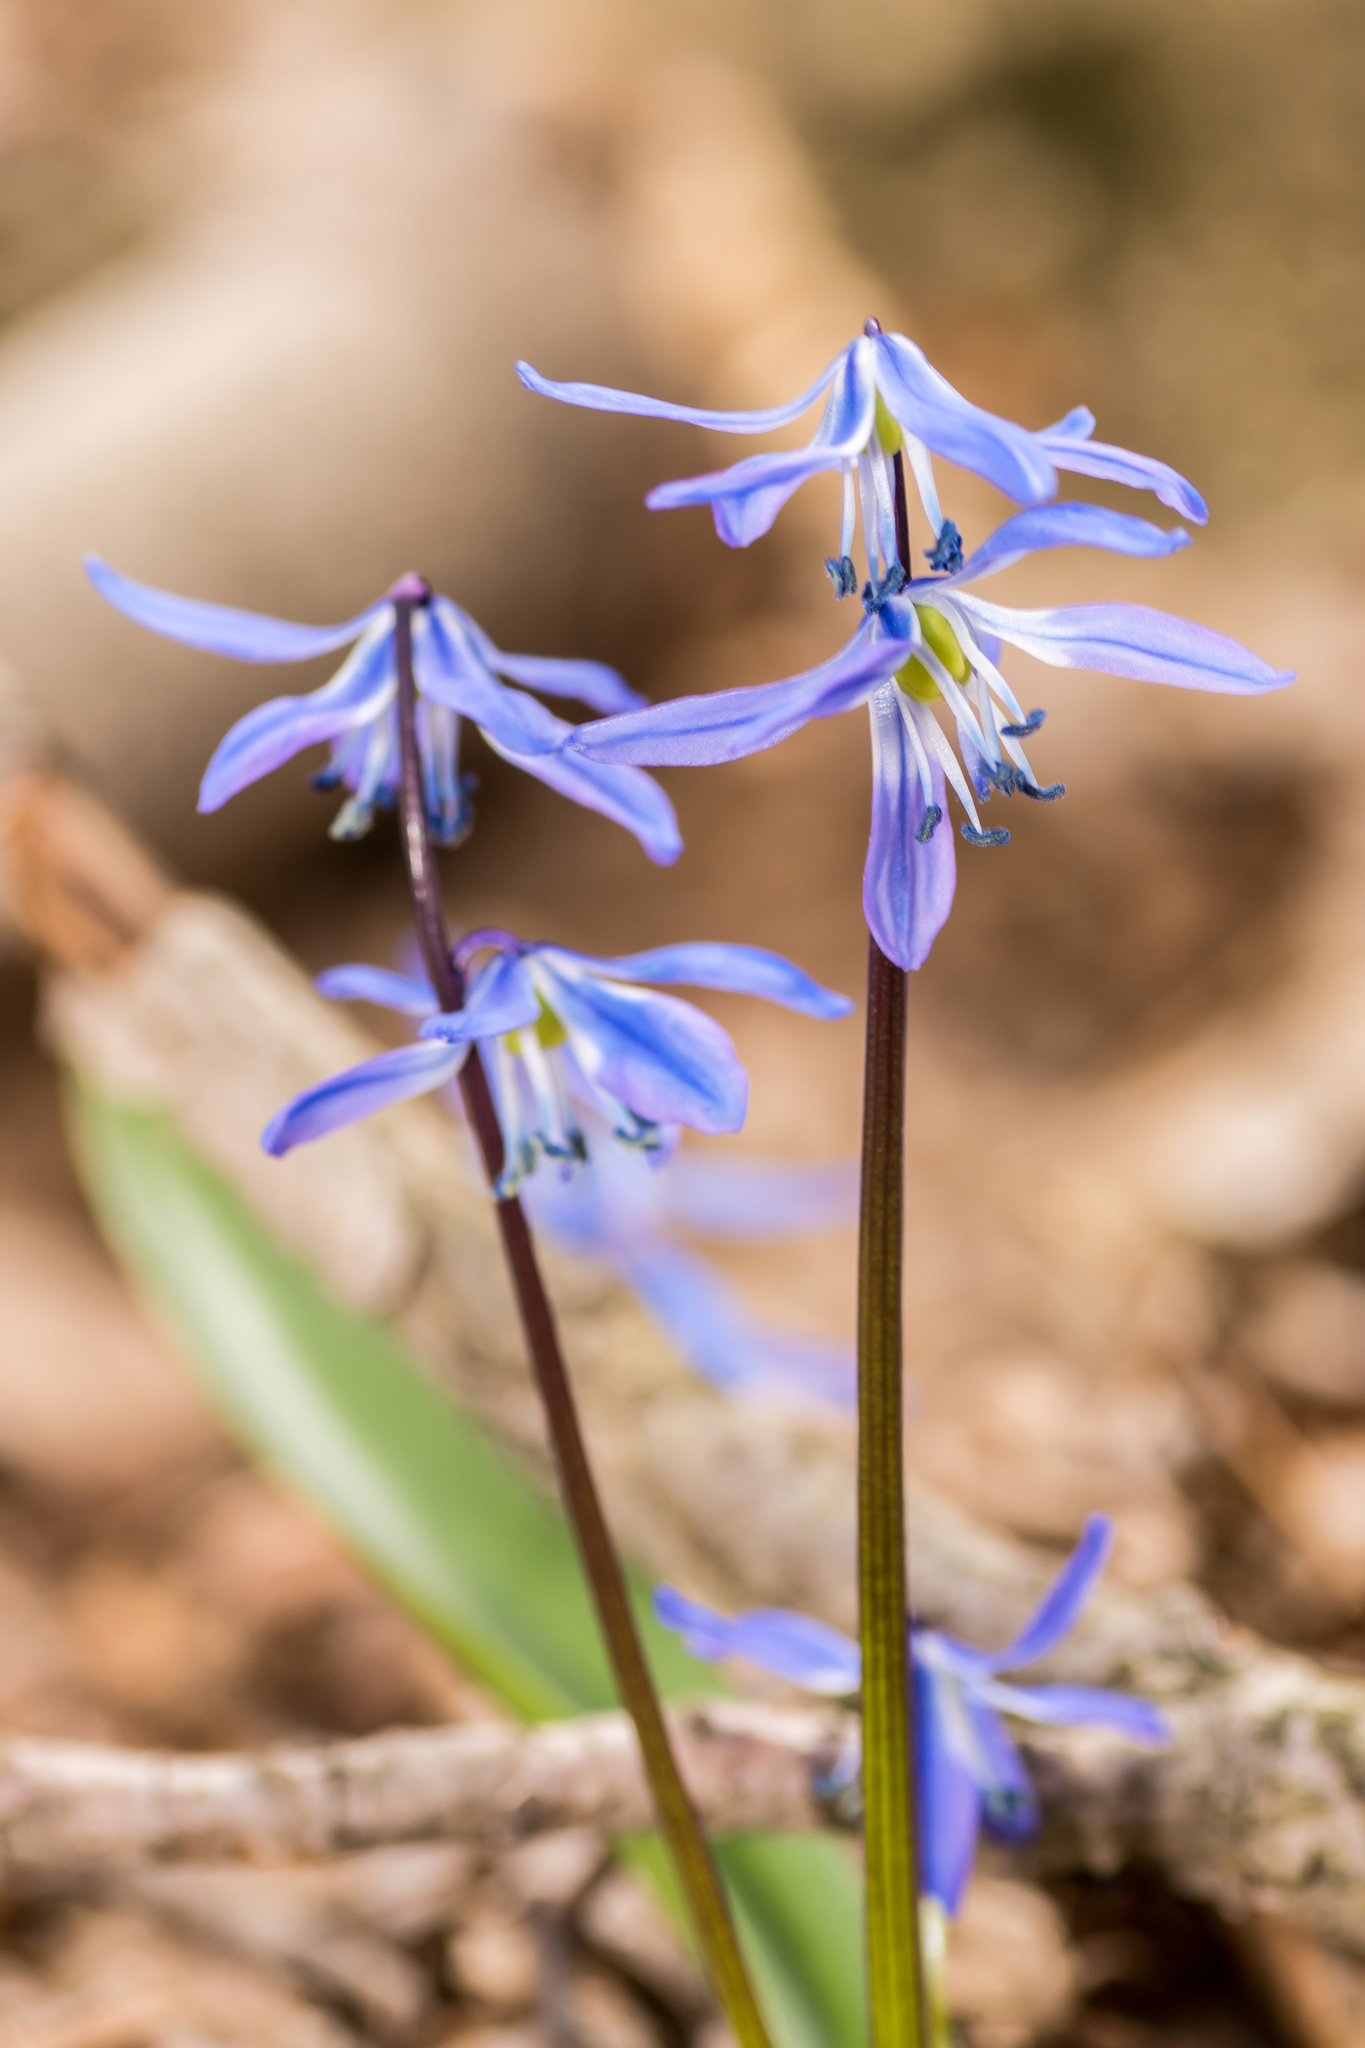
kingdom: Plantae
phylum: Tracheophyta
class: Liliopsida
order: Asparagales
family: Asparagaceae
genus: Scilla
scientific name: Scilla siberica
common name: Siberian squill
